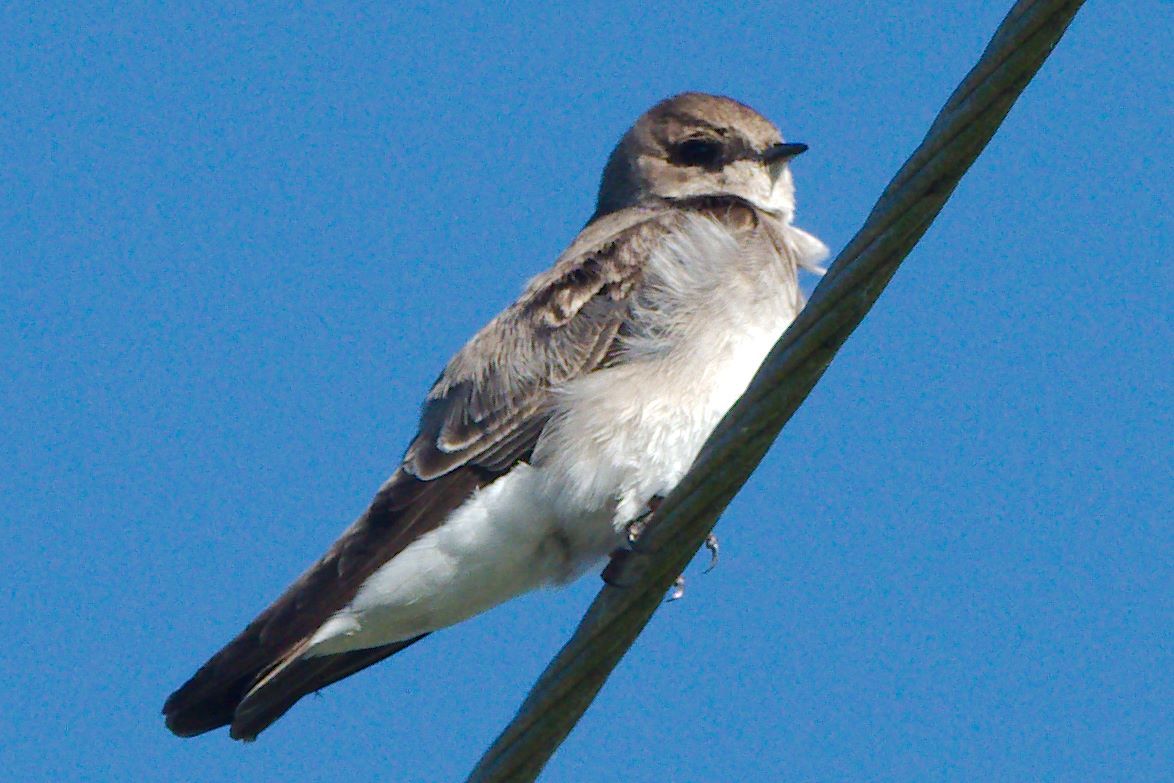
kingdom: Animalia
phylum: Chordata
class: Aves
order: Passeriformes
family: Hirundinidae
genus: Stelgidopteryx
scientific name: Stelgidopteryx serripennis
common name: Northern rough-winged swallow
